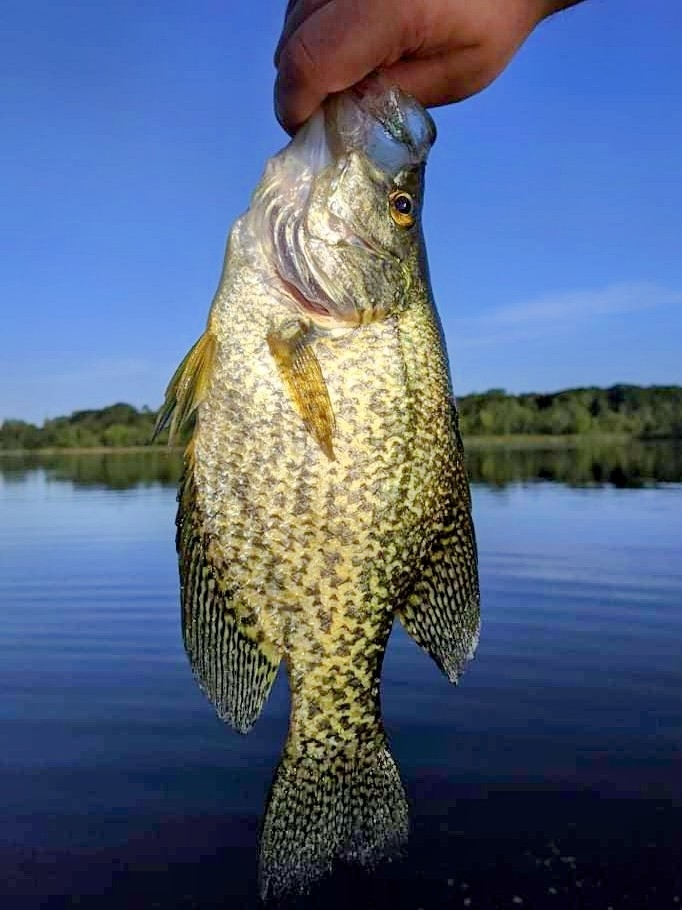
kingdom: Animalia
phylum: Chordata
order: Perciformes
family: Centrarchidae
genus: Pomoxis
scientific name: Pomoxis nigromaculatus
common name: Black crappie
